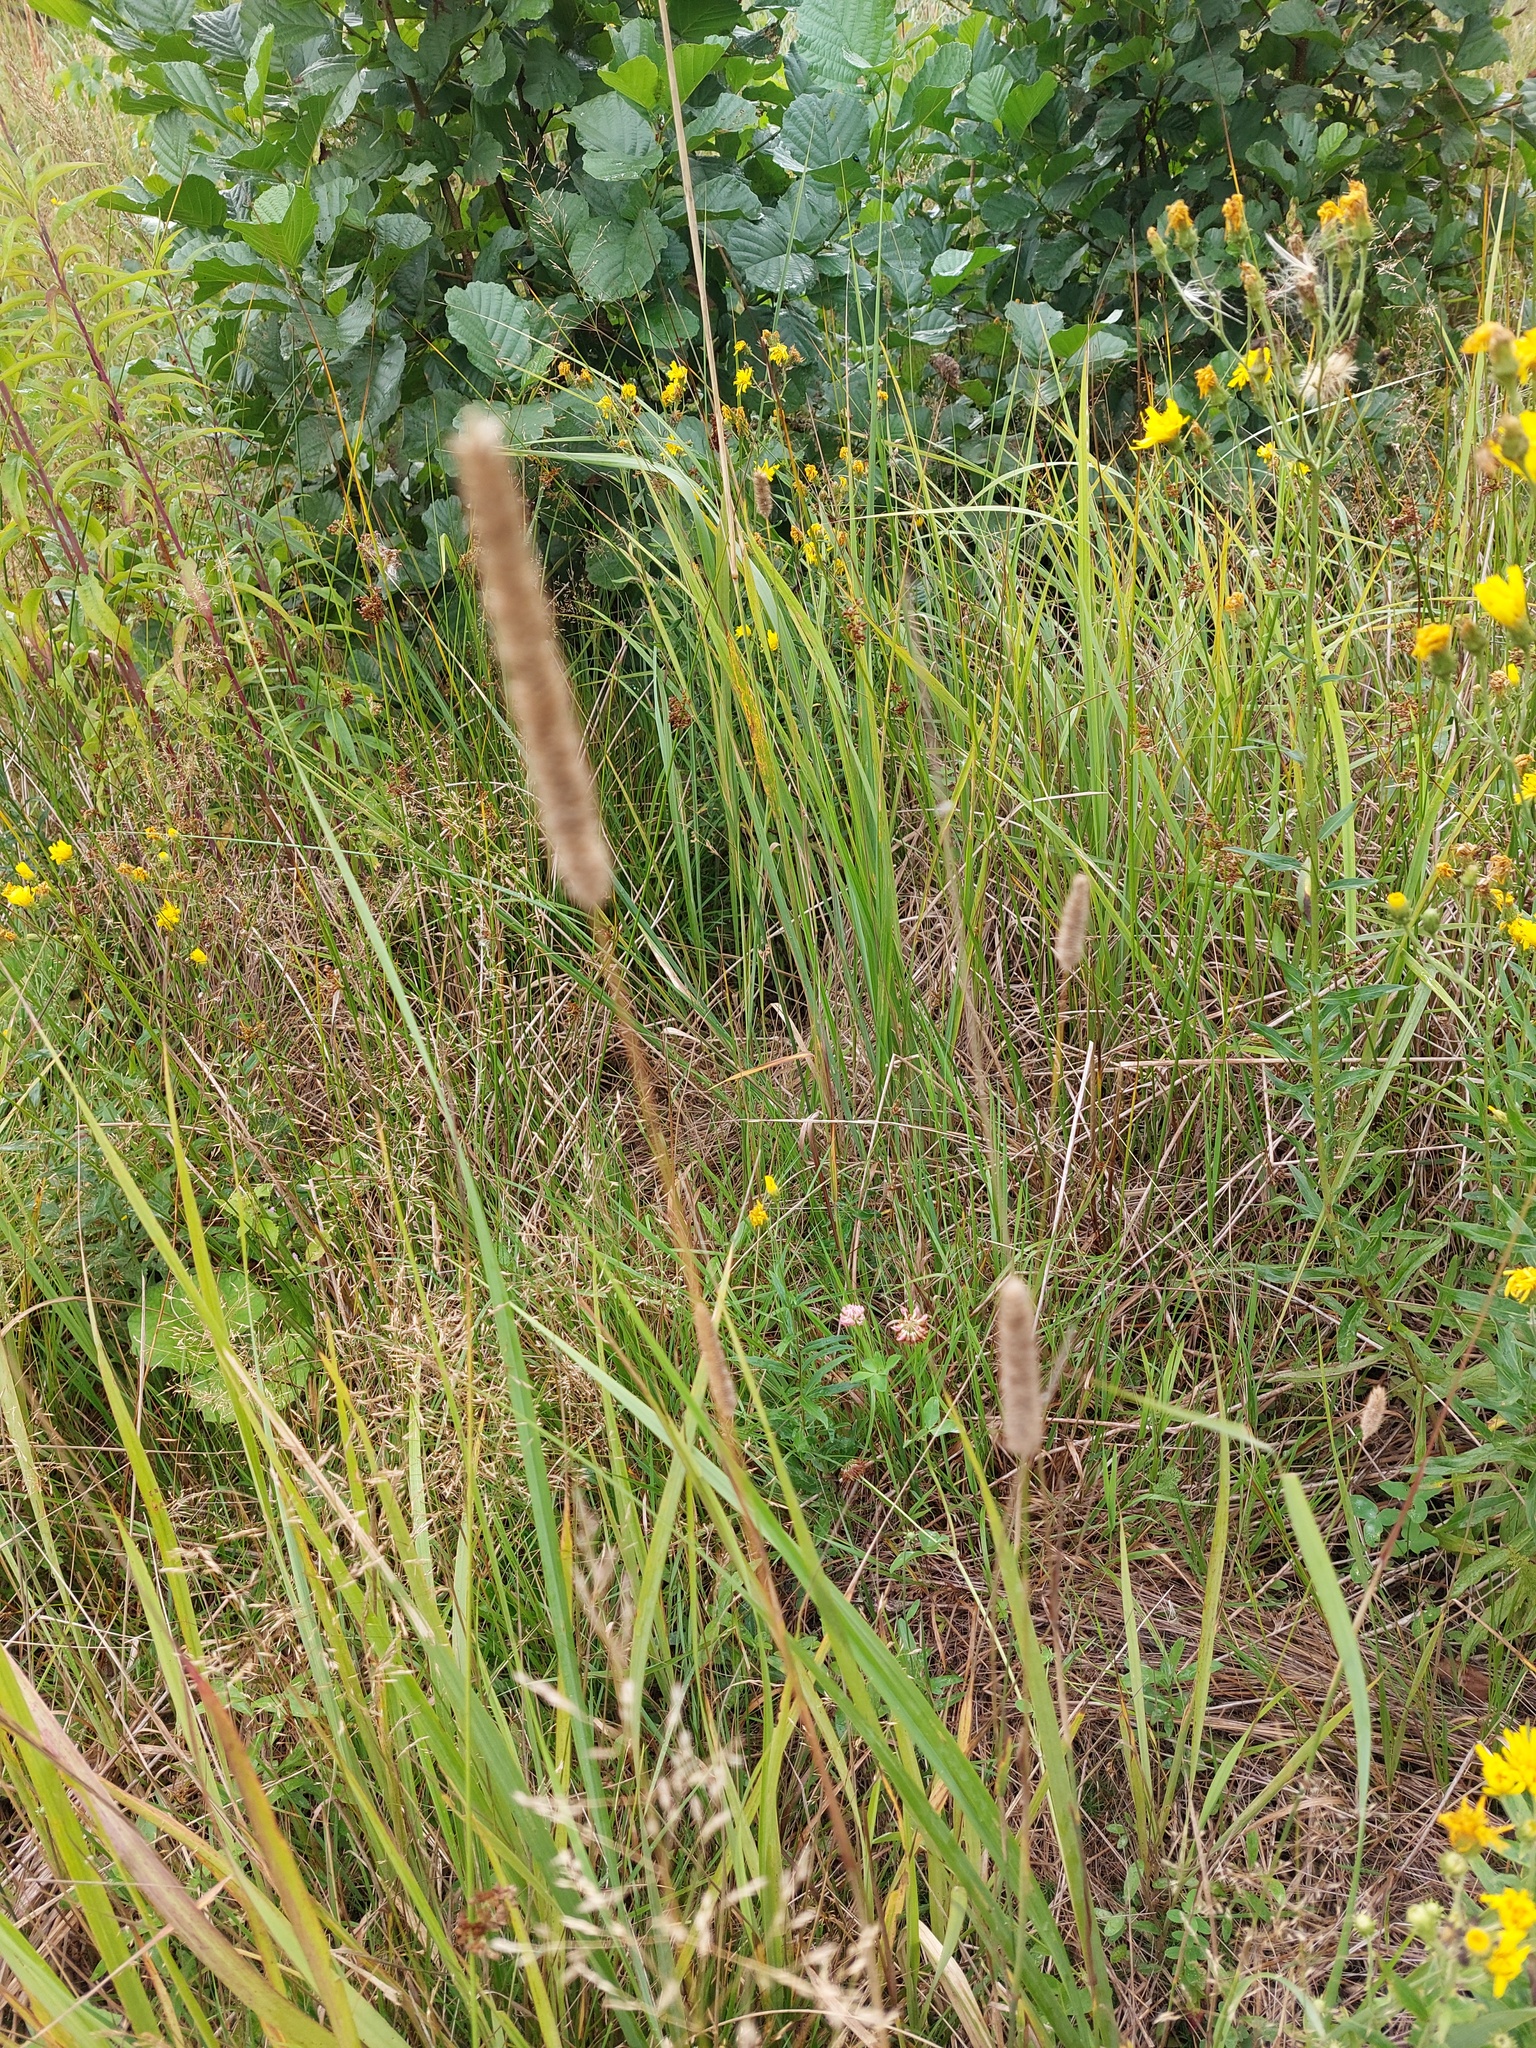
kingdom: Plantae
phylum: Tracheophyta
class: Liliopsida
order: Poales
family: Poaceae
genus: Phleum
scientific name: Phleum pratense
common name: Timothy grass
